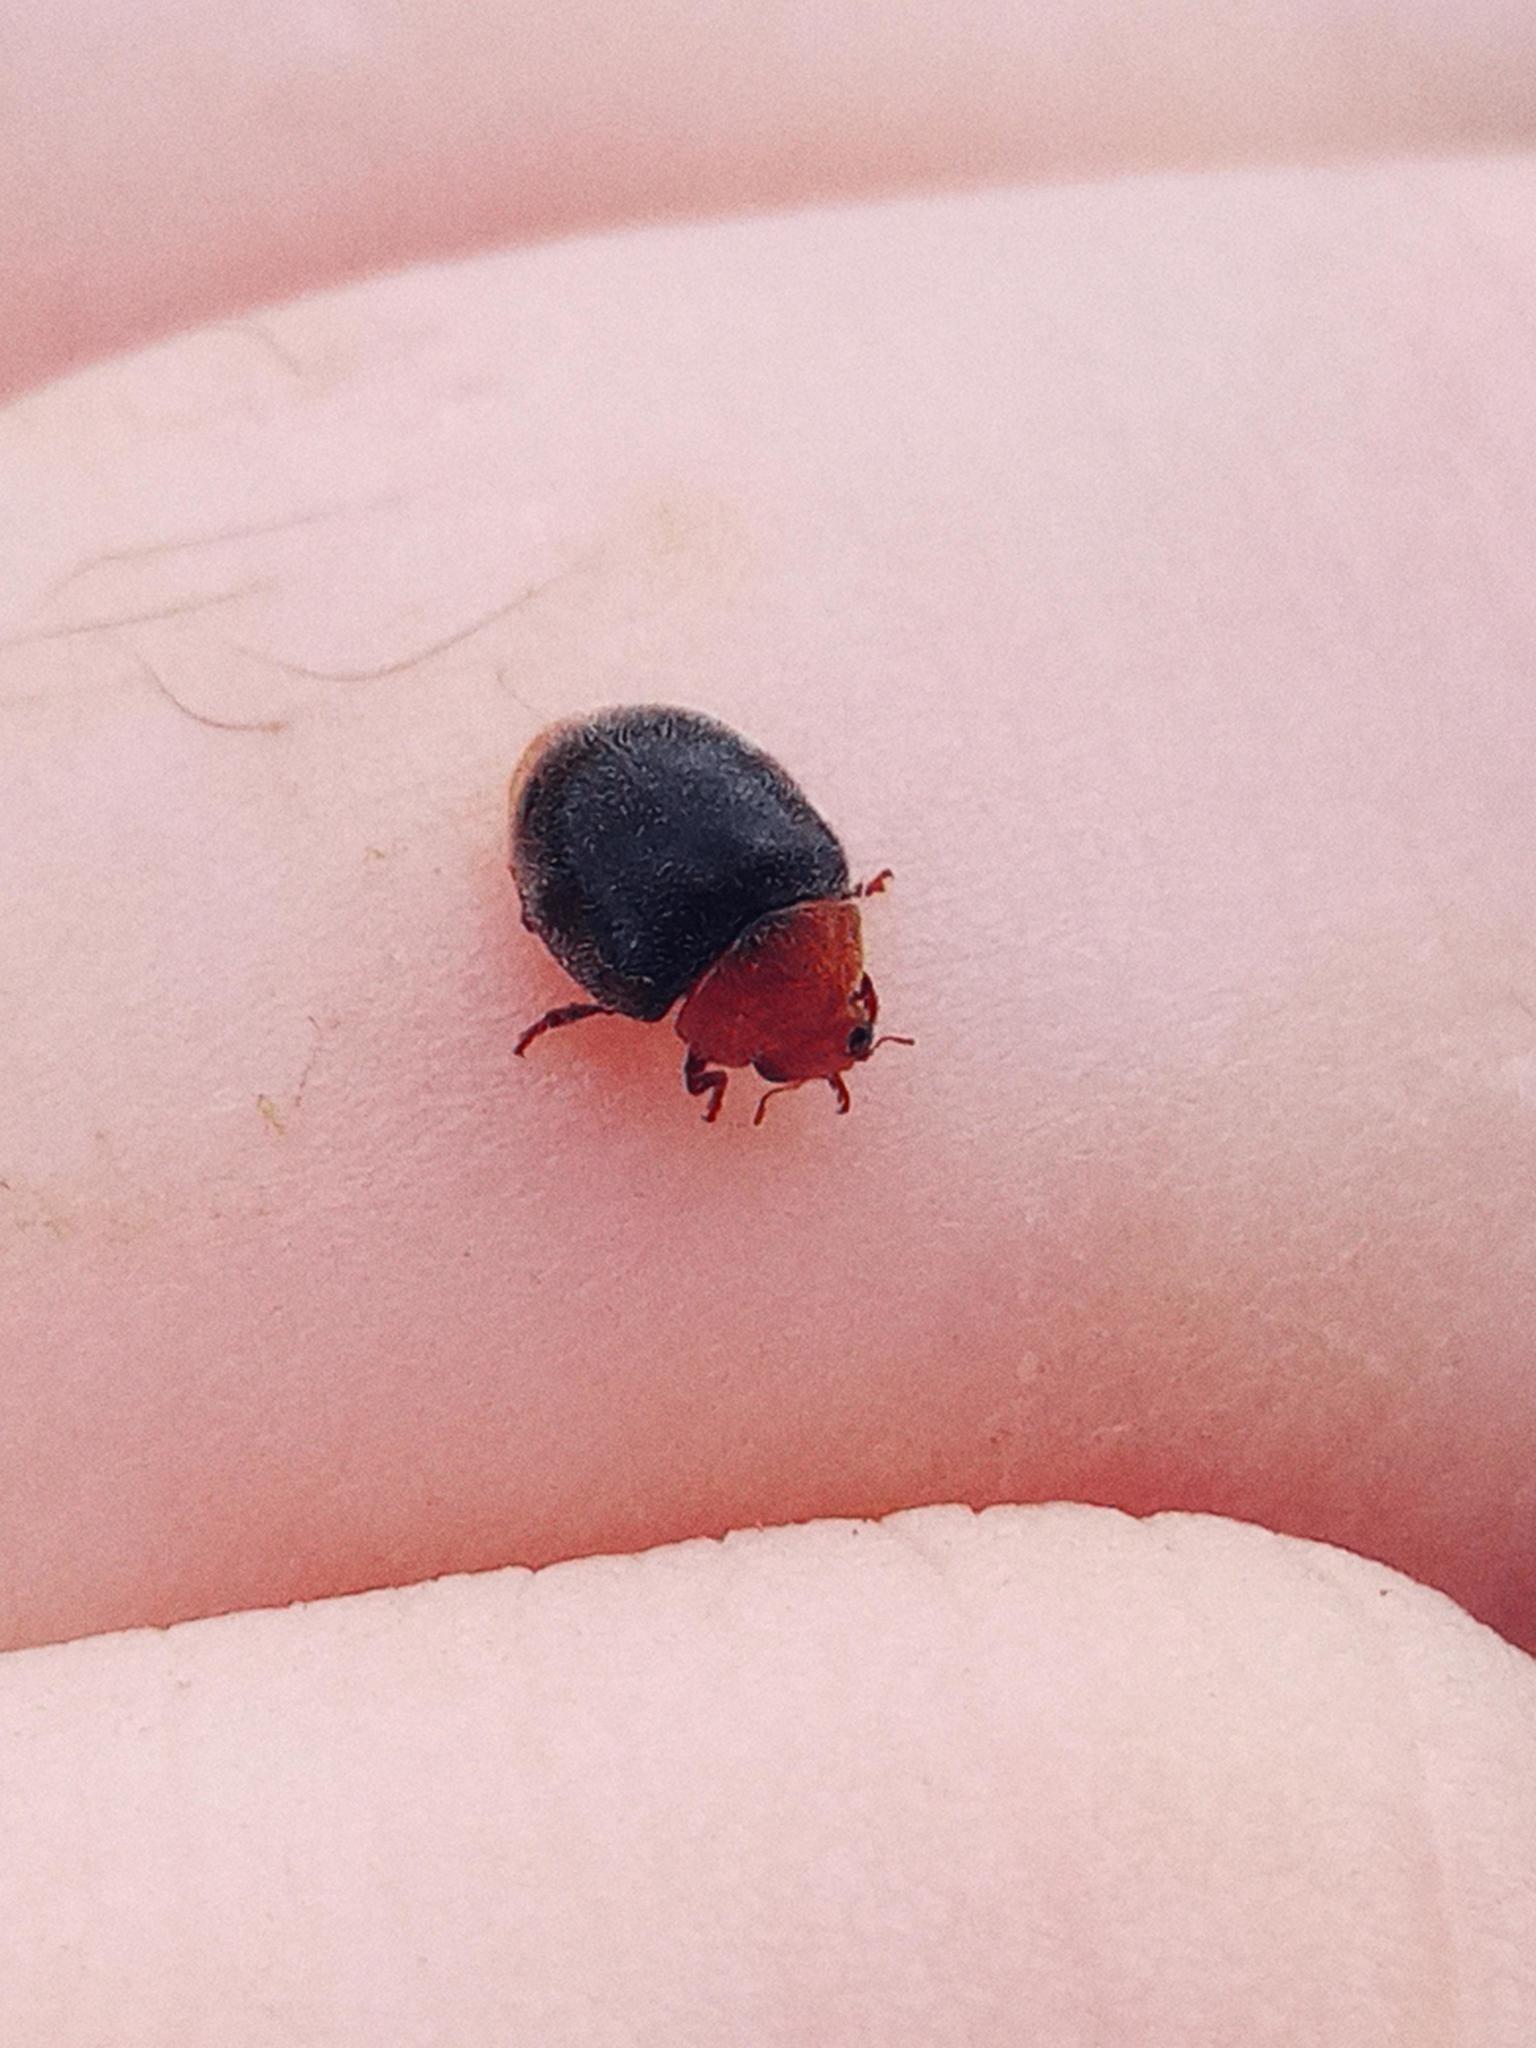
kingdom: Animalia
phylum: Arthropoda
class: Insecta
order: Coleoptera
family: Coccinellidae
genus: Cryptolaemus
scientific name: Cryptolaemus montrouzieri
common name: Mealybug destroyer
